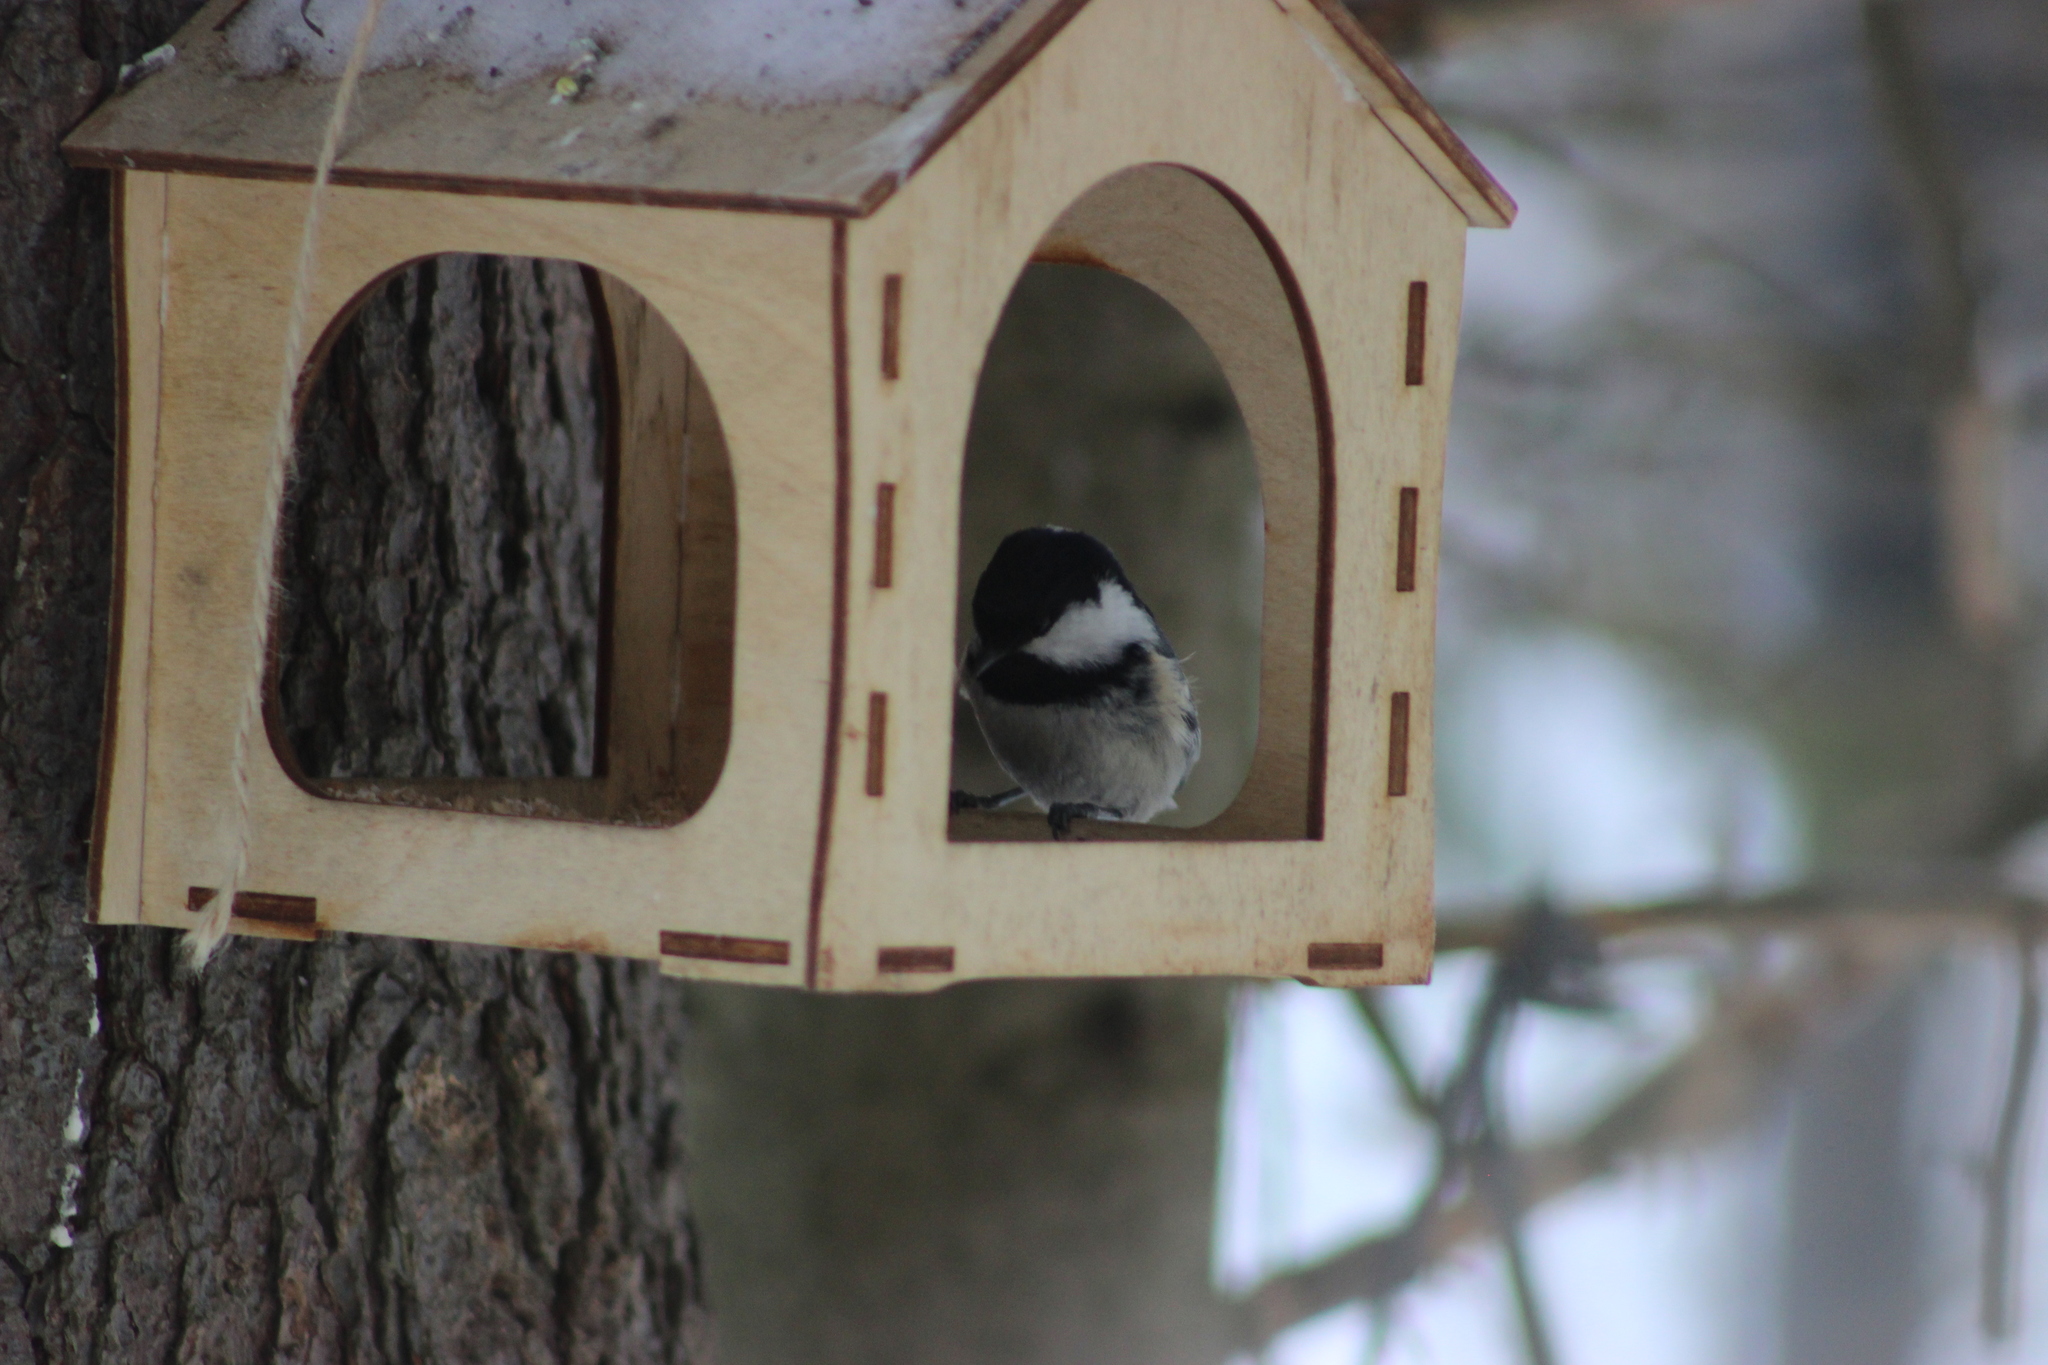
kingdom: Animalia
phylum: Chordata
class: Aves
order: Passeriformes
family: Paridae
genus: Periparus
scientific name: Periparus ater
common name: Coal tit
